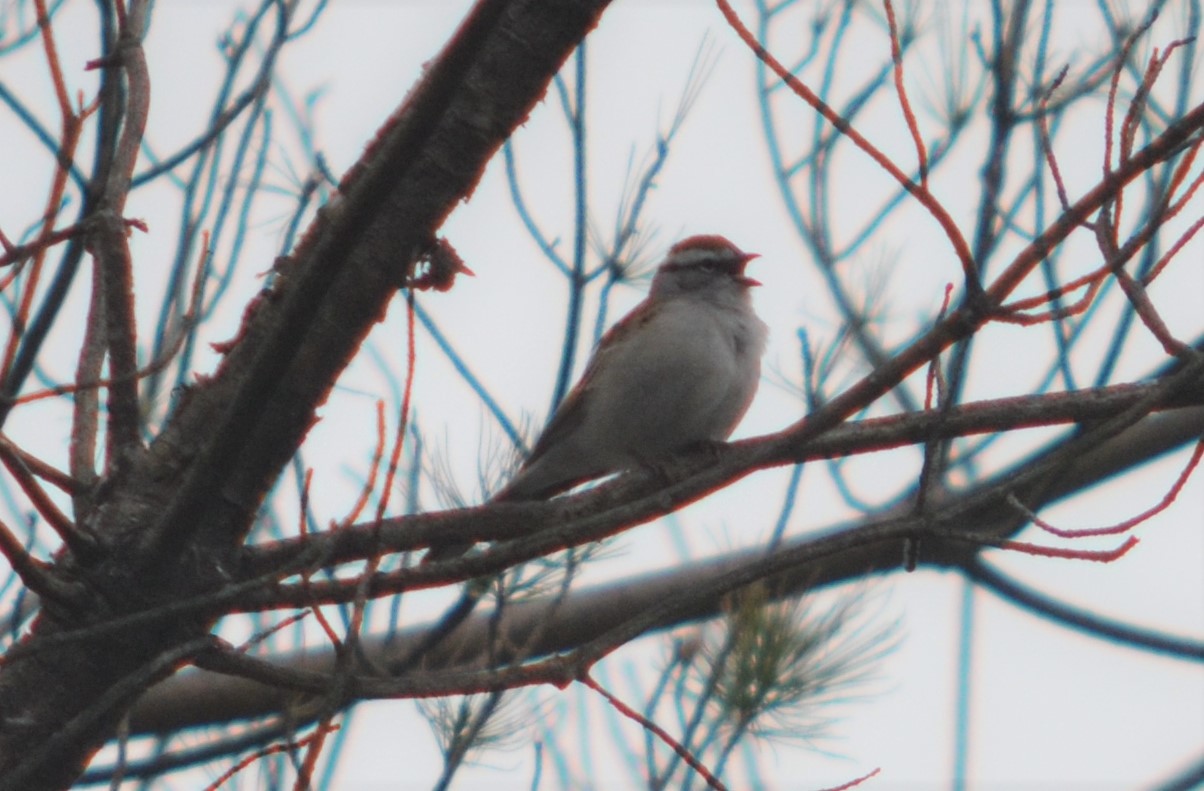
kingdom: Animalia
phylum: Chordata
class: Aves
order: Passeriformes
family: Passerellidae
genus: Spizella
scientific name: Spizella passerina
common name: Chipping sparrow
